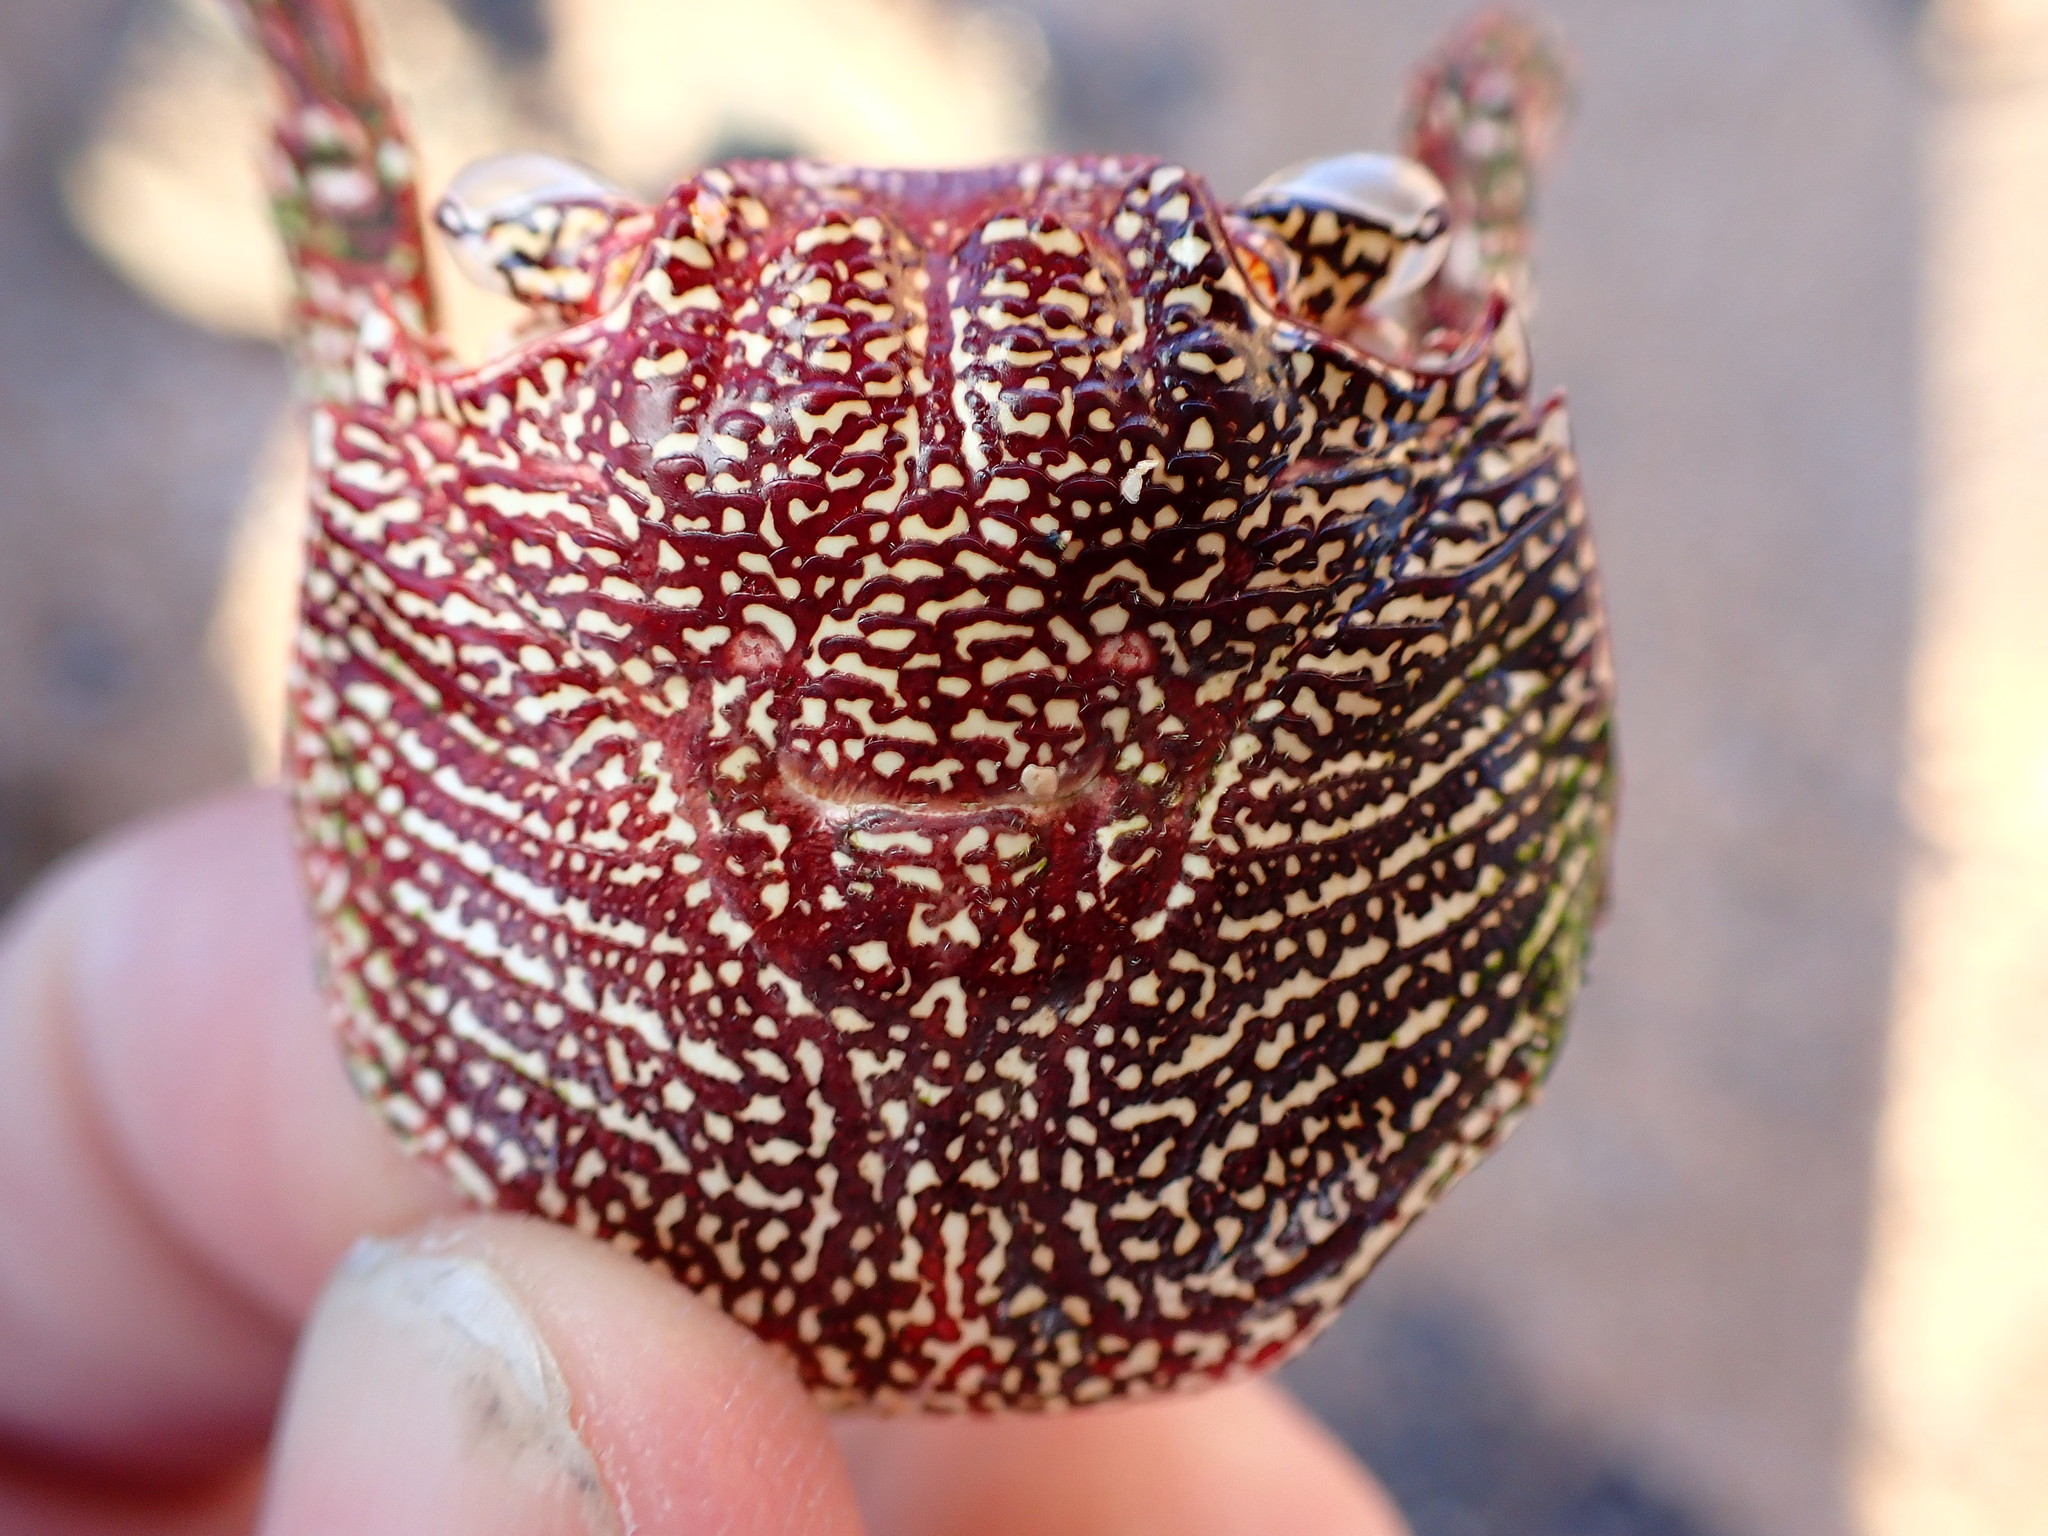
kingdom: Animalia
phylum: Arthropoda
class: Malacostraca
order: Decapoda
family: Grapsidae
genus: Grapsus
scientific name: Grapsus tenuicrustatus
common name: Natal lightfoot crab
